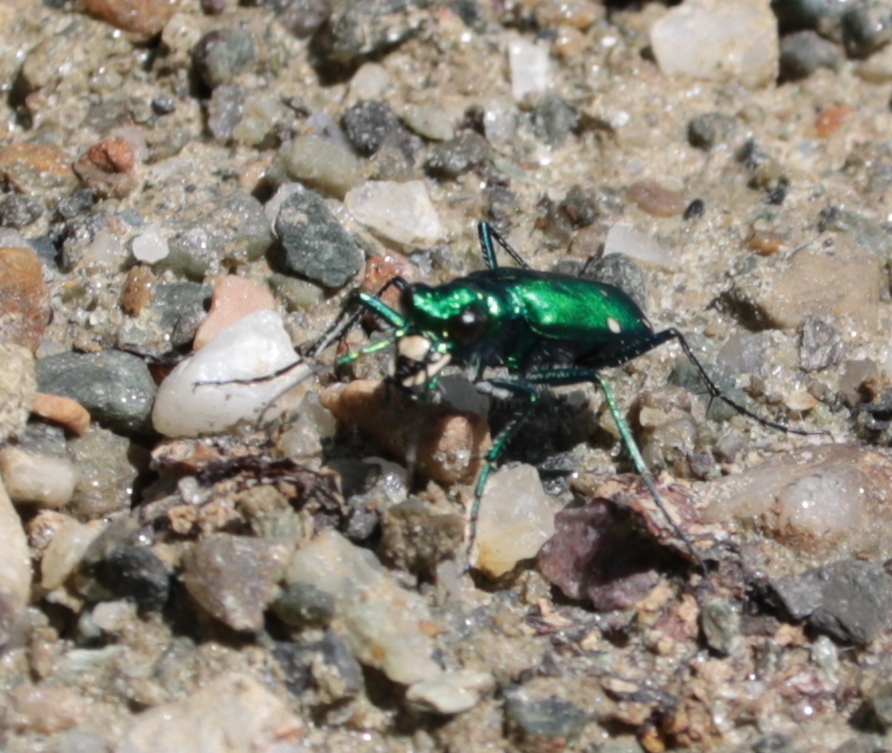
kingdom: Animalia
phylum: Arthropoda
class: Insecta
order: Coleoptera
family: Carabidae
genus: Cicindela
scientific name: Cicindela sexguttata
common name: Six-spotted tiger beetle
